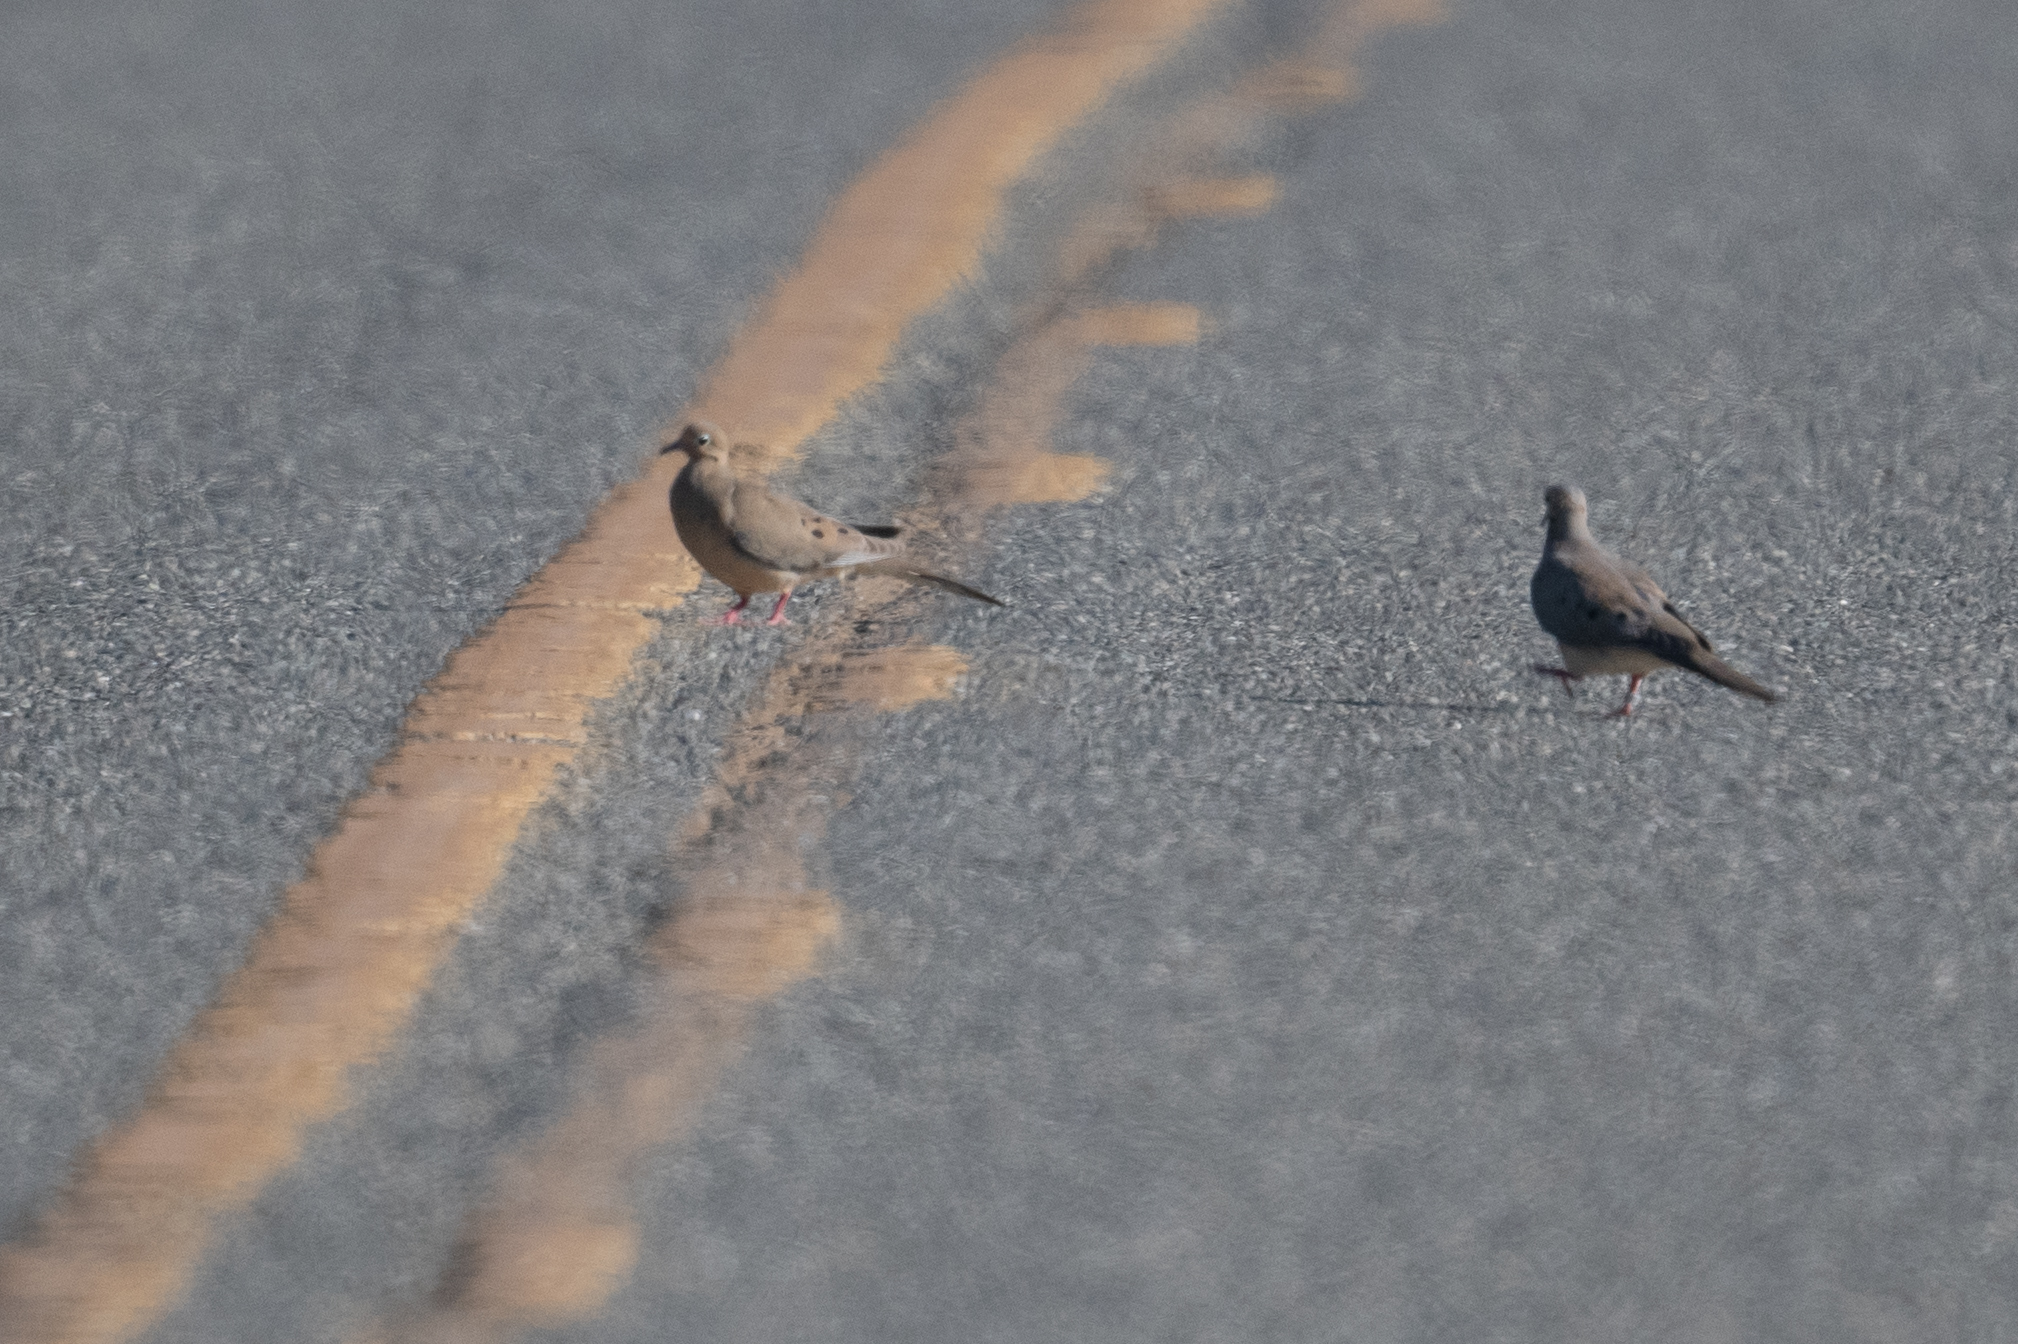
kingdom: Animalia
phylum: Chordata
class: Aves
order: Columbiformes
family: Columbidae
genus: Zenaida
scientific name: Zenaida macroura
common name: Mourning dove
